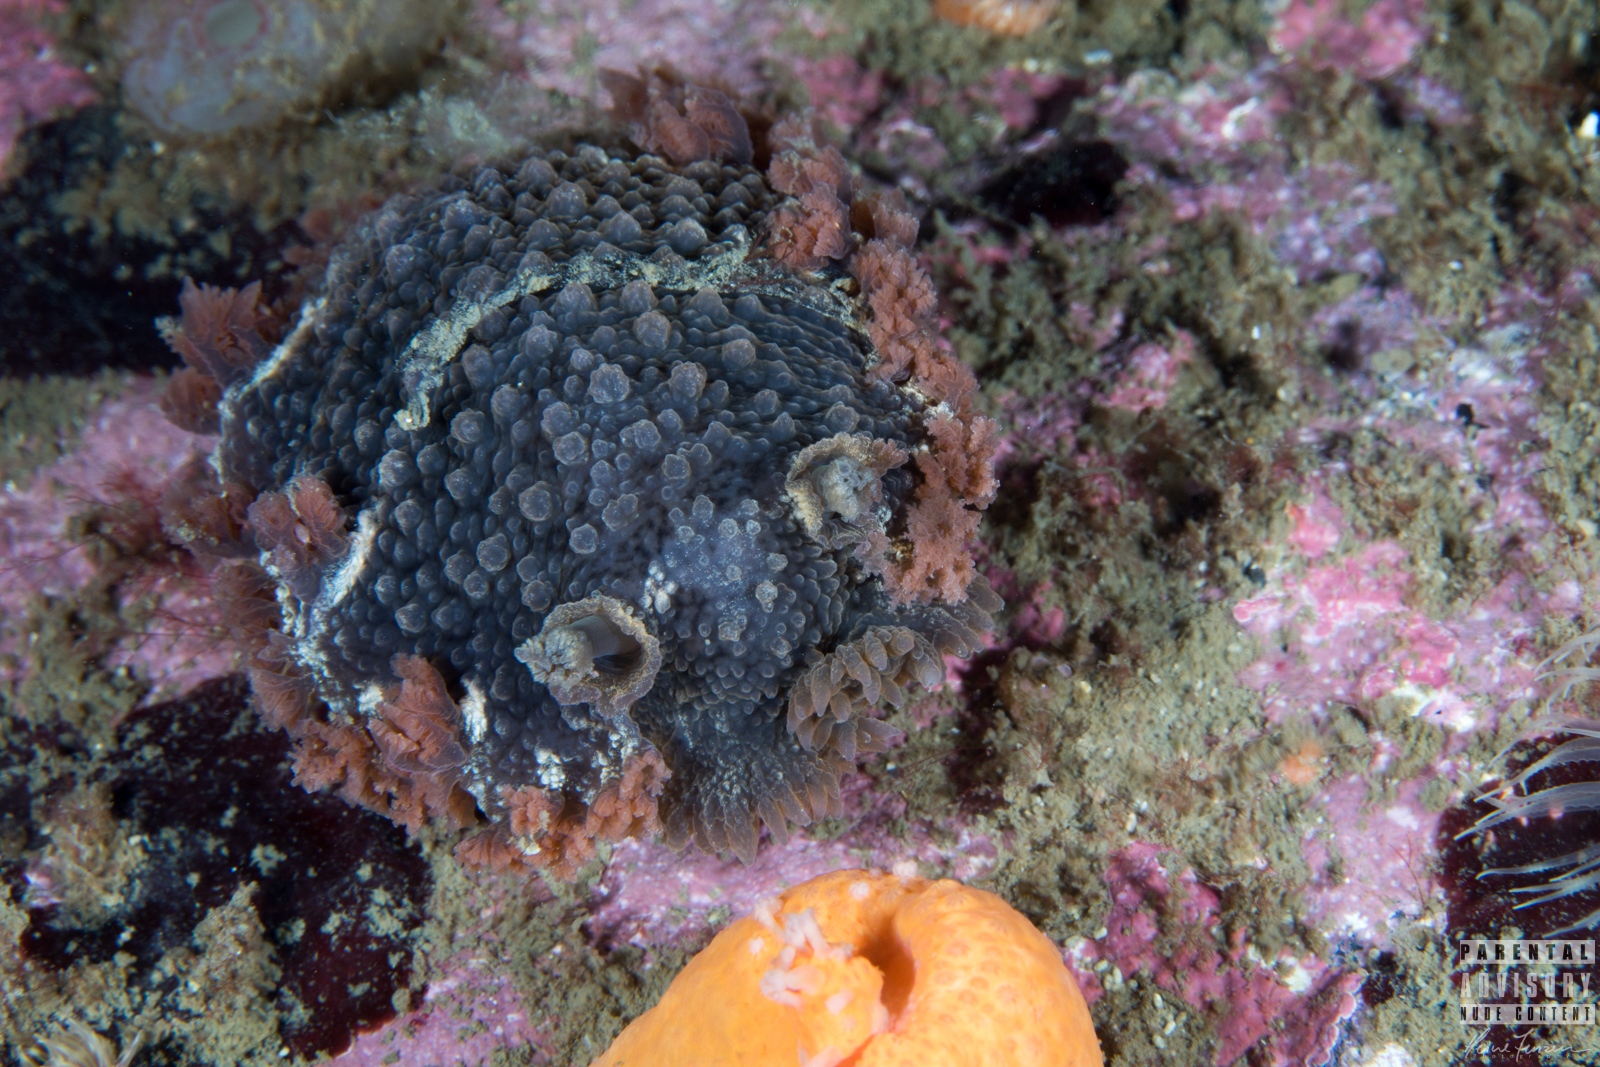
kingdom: Animalia
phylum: Mollusca
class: Gastropoda
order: Nudibranchia
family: Tritoniidae
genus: Tritonia
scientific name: Tritonia hombergii
